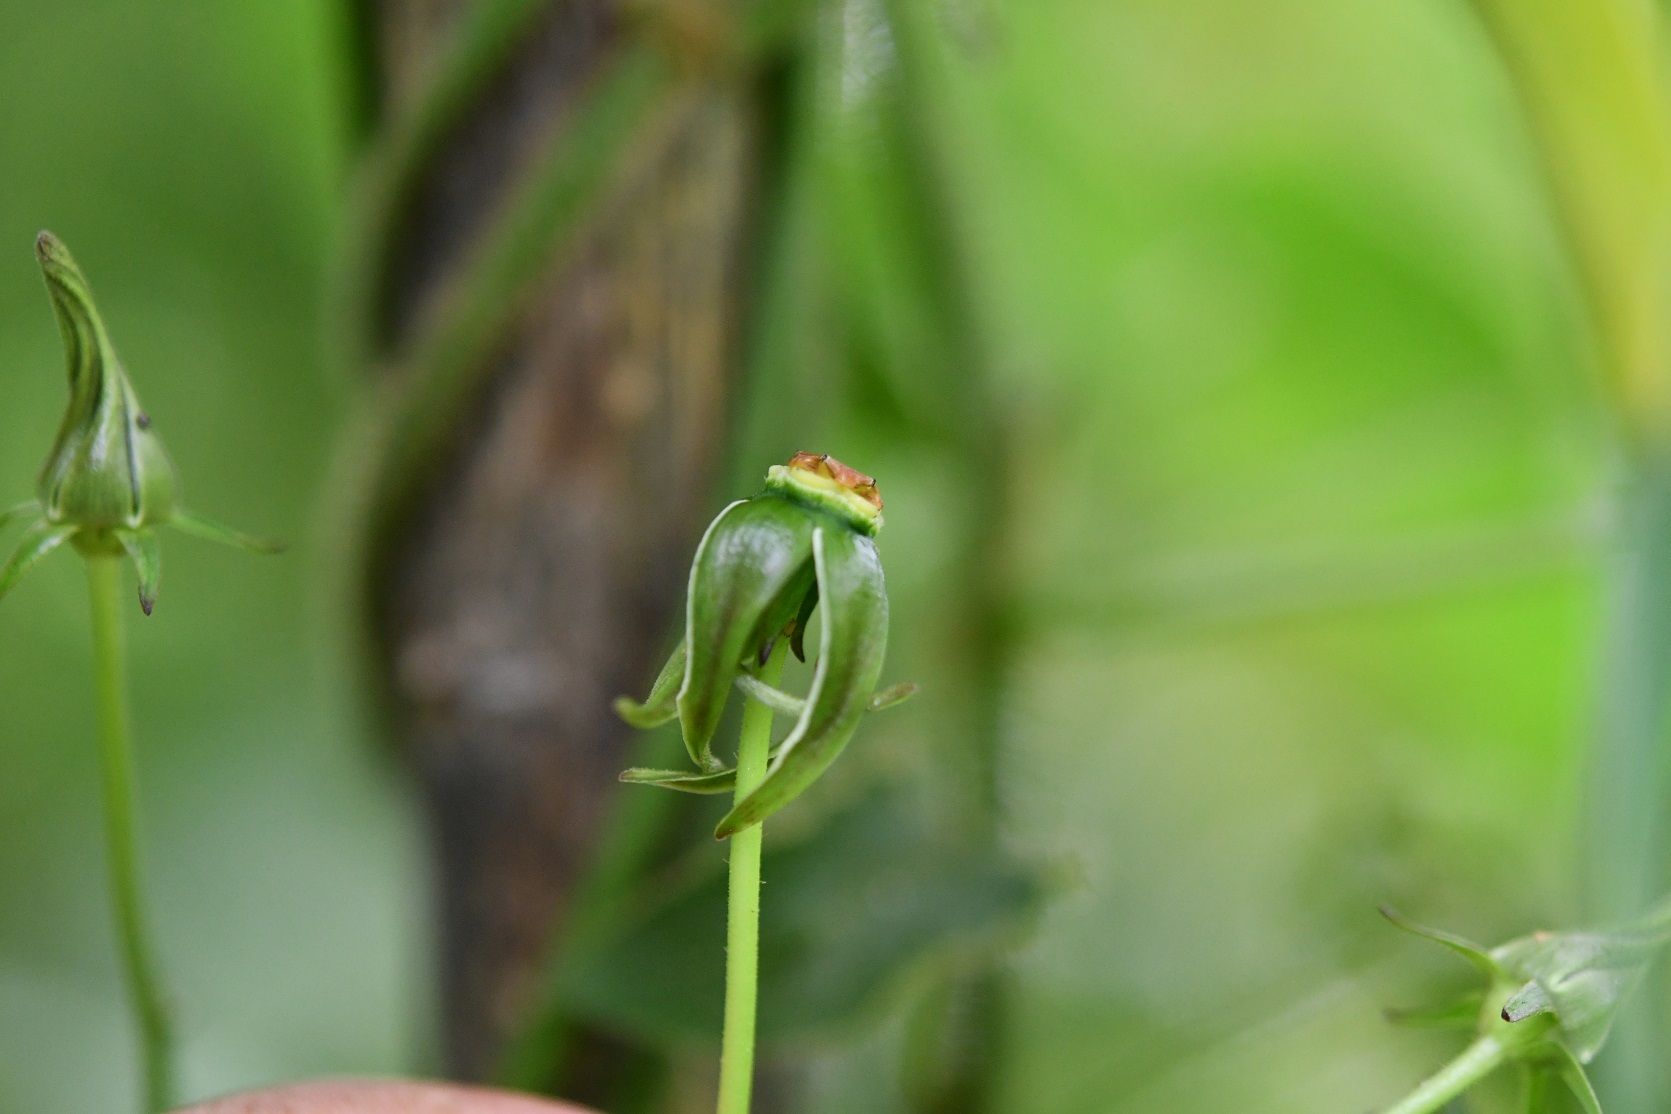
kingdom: Plantae
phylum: Tracheophyta
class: Magnoliopsida
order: Gentianales
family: Apocynaceae
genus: Gonolobus
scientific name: Gonolobus breedlovei
